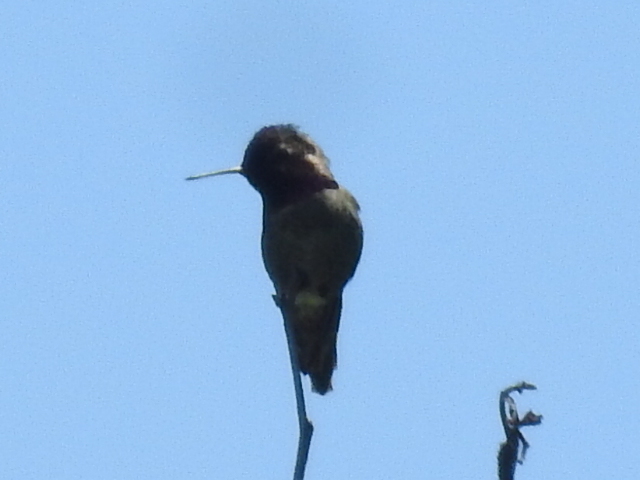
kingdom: Animalia
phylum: Chordata
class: Aves
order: Apodiformes
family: Trochilidae
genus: Calypte
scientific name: Calypte anna
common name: Anna's hummingbird
